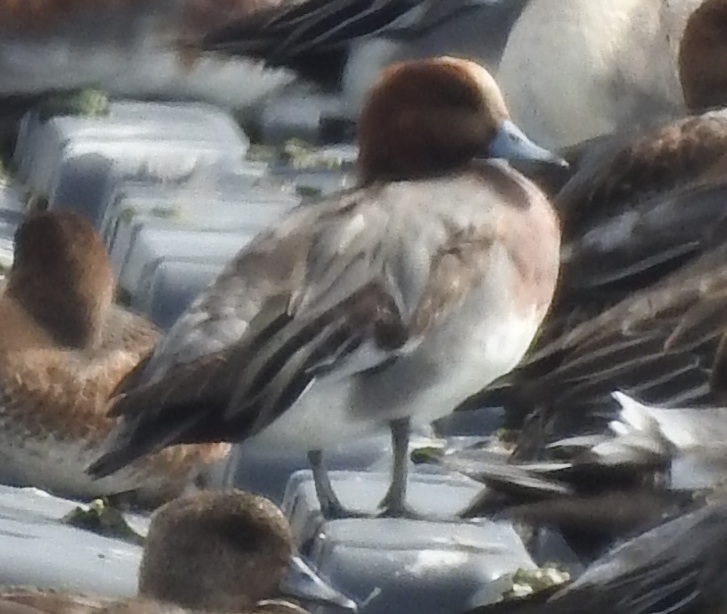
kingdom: Animalia
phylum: Chordata
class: Aves
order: Anseriformes
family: Anatidae
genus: Mareca
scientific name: Mareca penelope
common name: Eurasian wigeon
